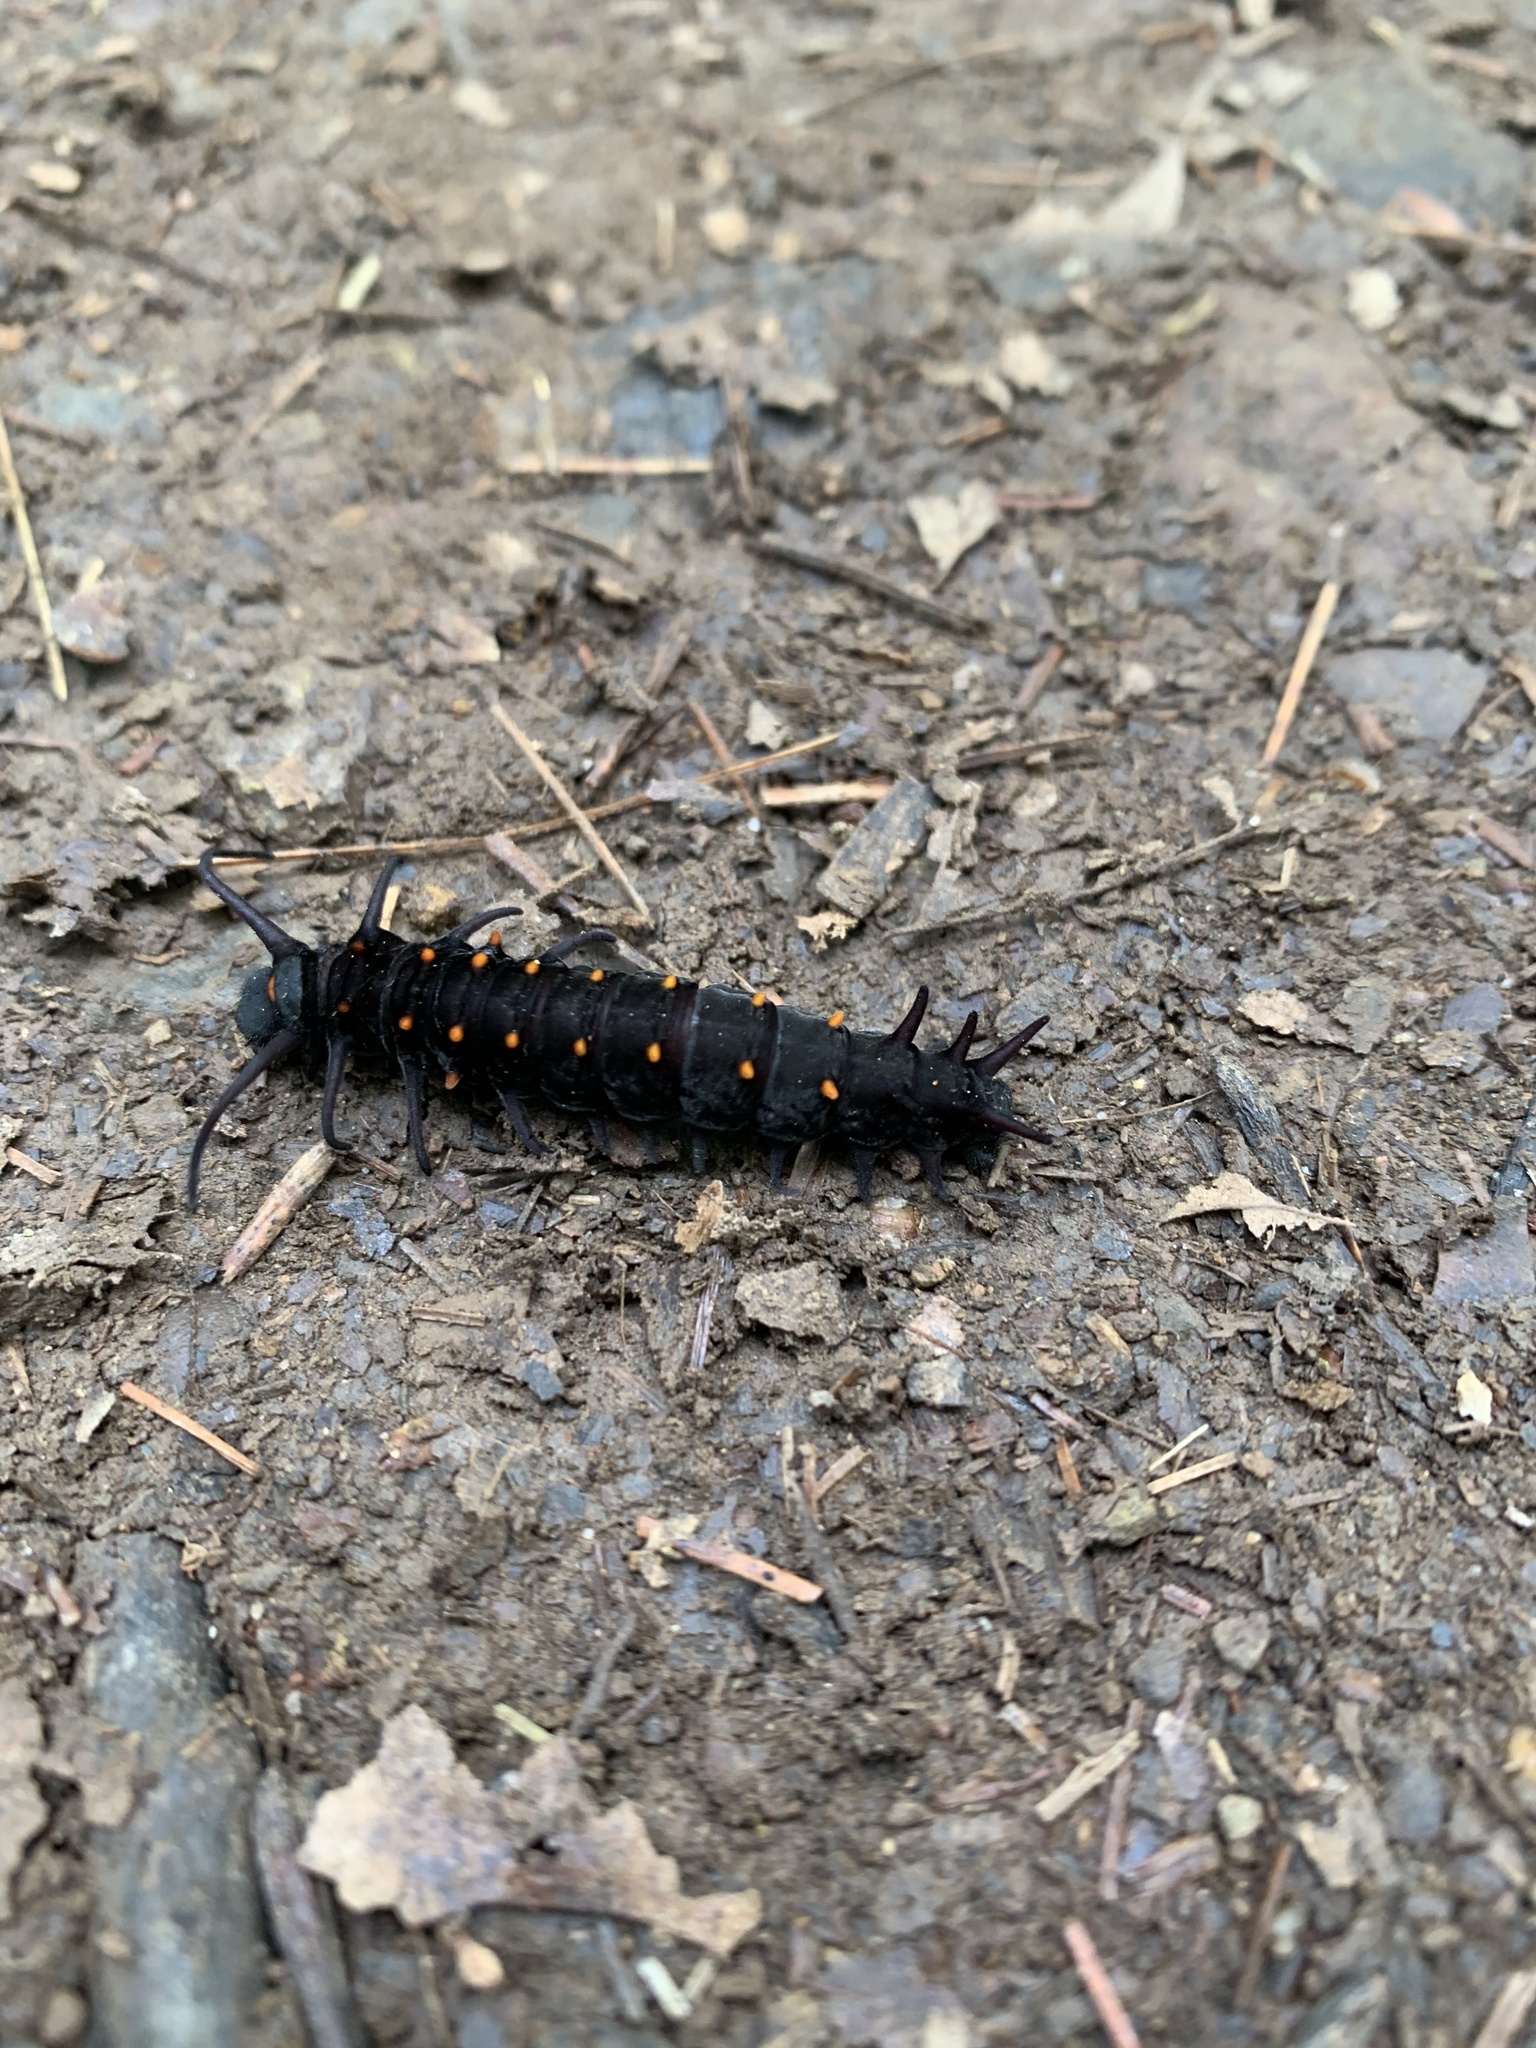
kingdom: Animalia
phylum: Arthropoda
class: Insecta
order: Lepidoptera
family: Papilionidae
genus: Battus
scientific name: Battus philenor
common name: Pipevine swallowtail
